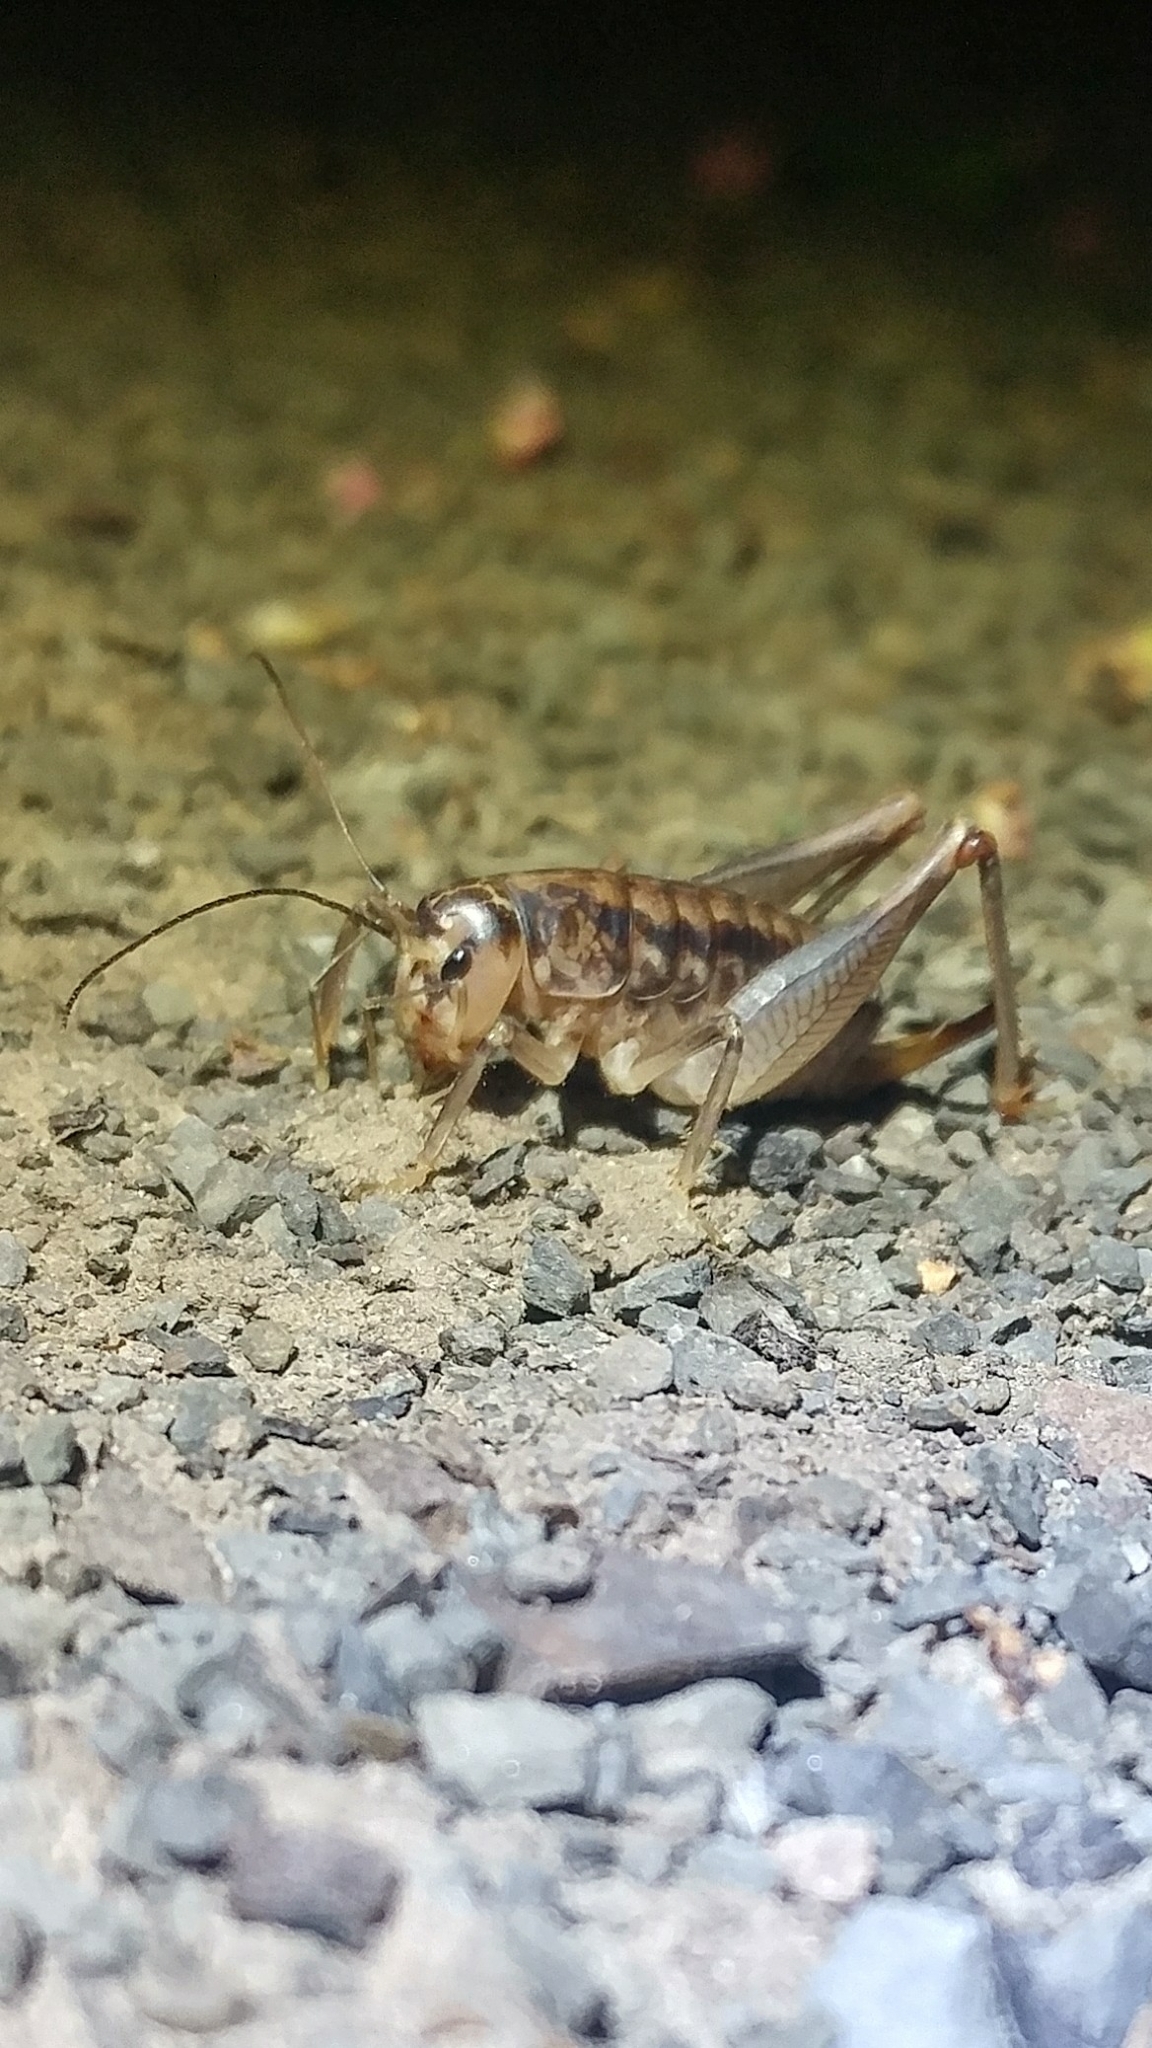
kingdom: Animalia
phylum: Arthropoda
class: Insecta
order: Orthoptera
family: Anostostomatidae
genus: Cnemotettix
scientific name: Cnemotettix bifasciatus
